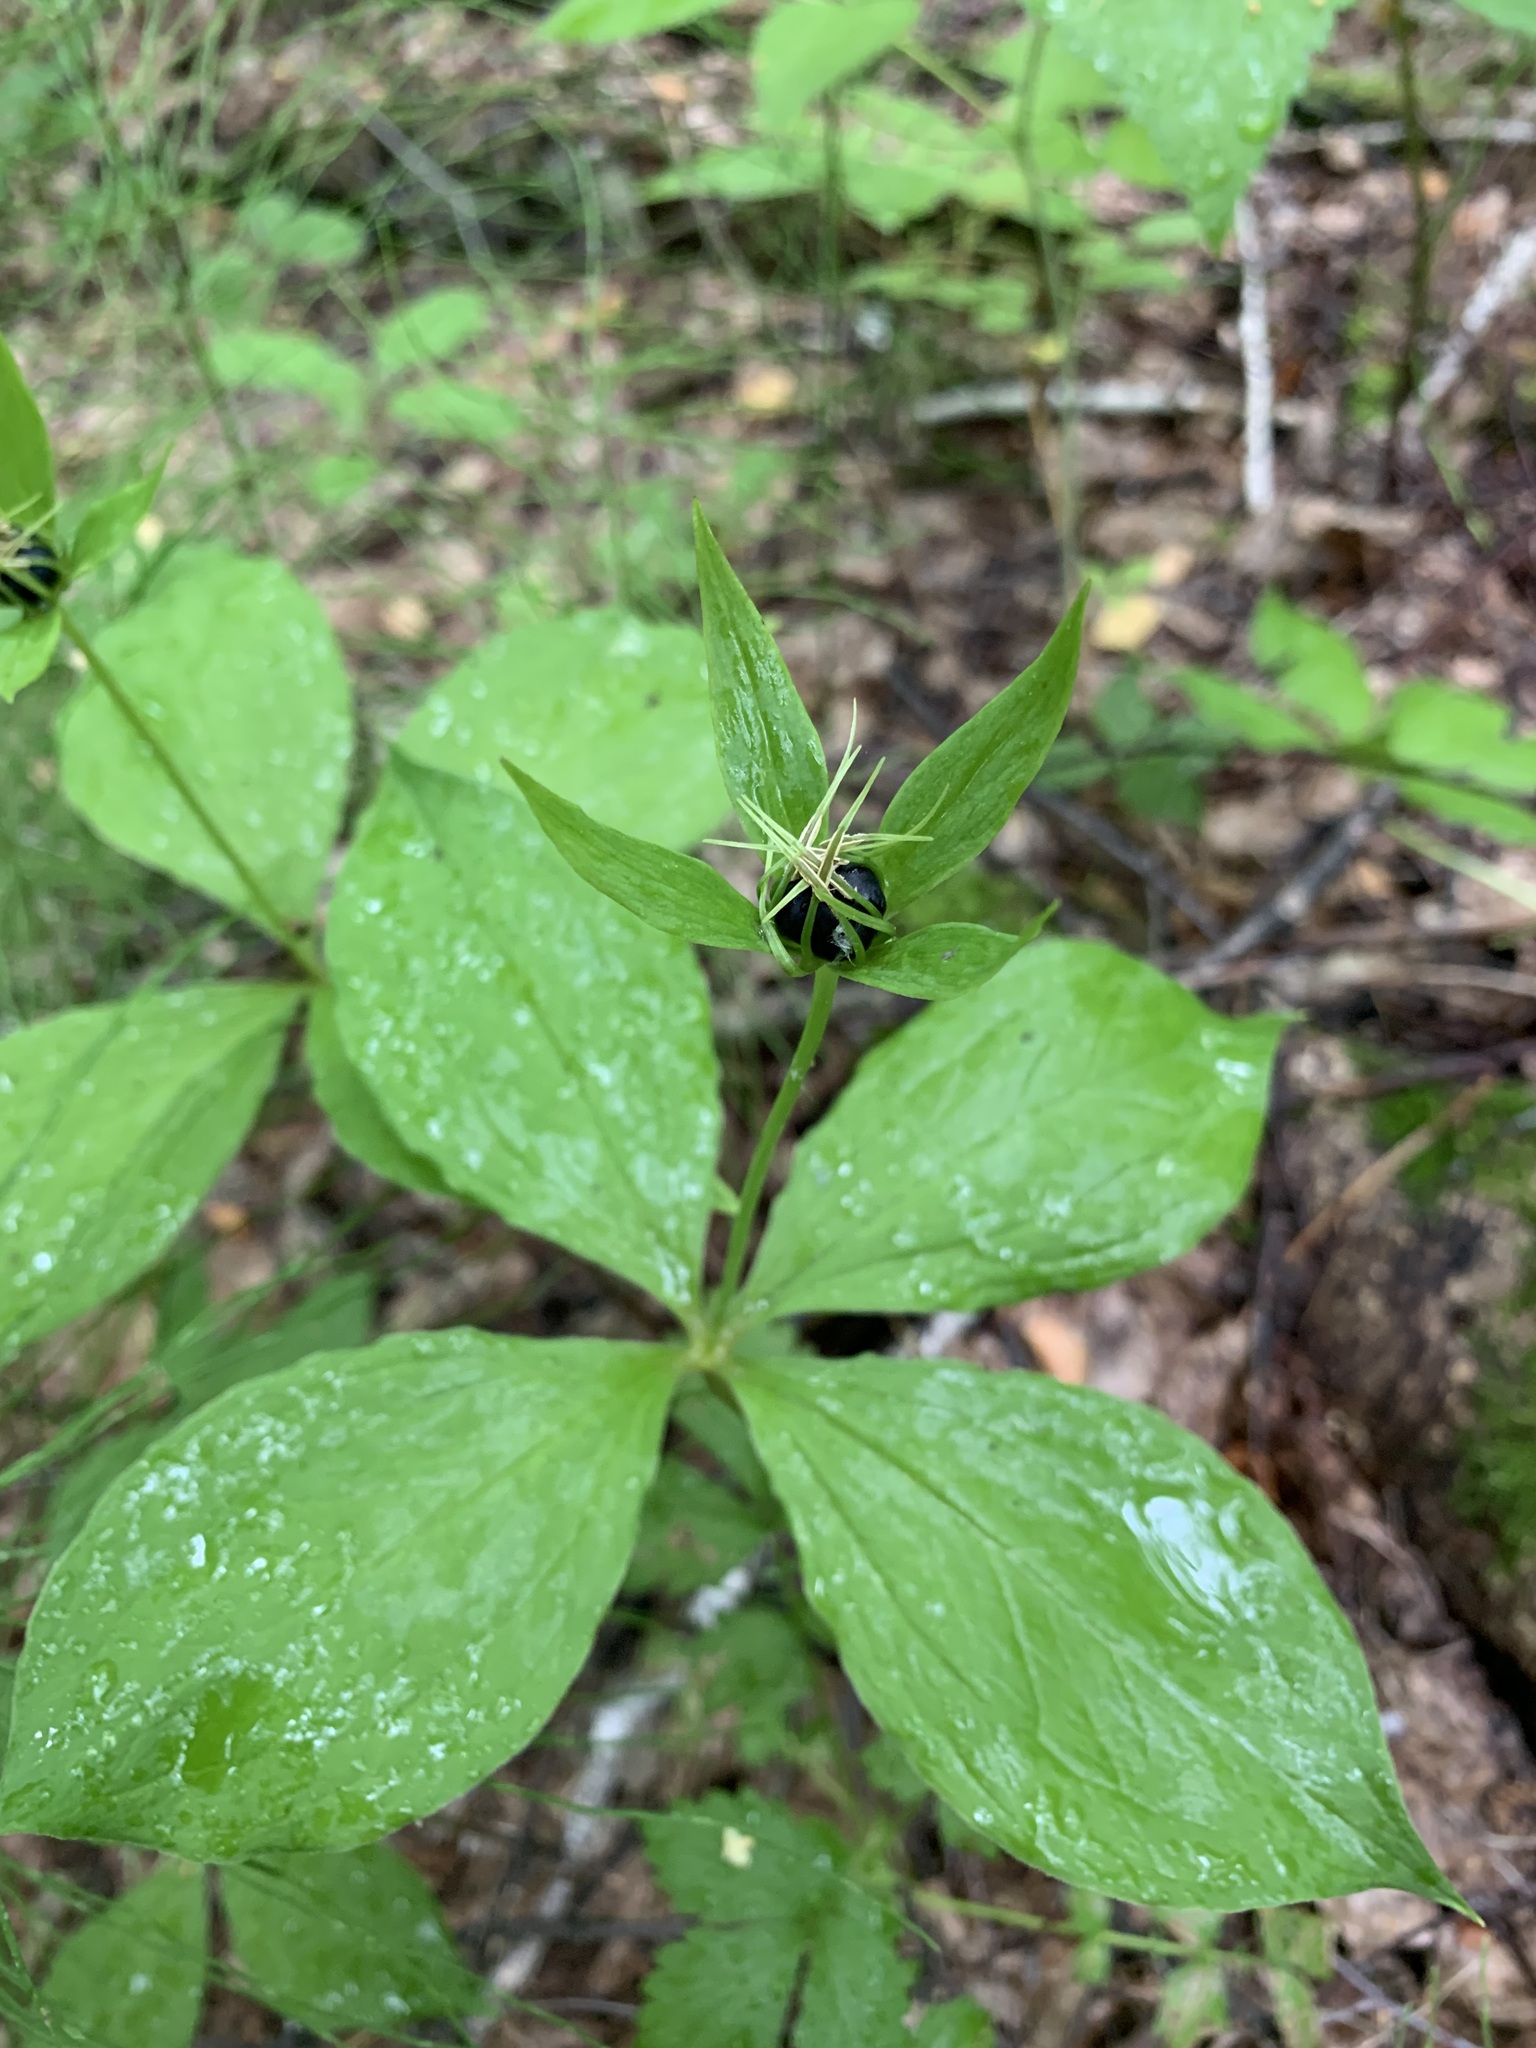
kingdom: Plantae
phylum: Tracheophyta
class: Liliopsida
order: Liliales
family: Melanthiaceae
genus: Paris
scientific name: Paris quadrifolia
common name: Herb-paris
